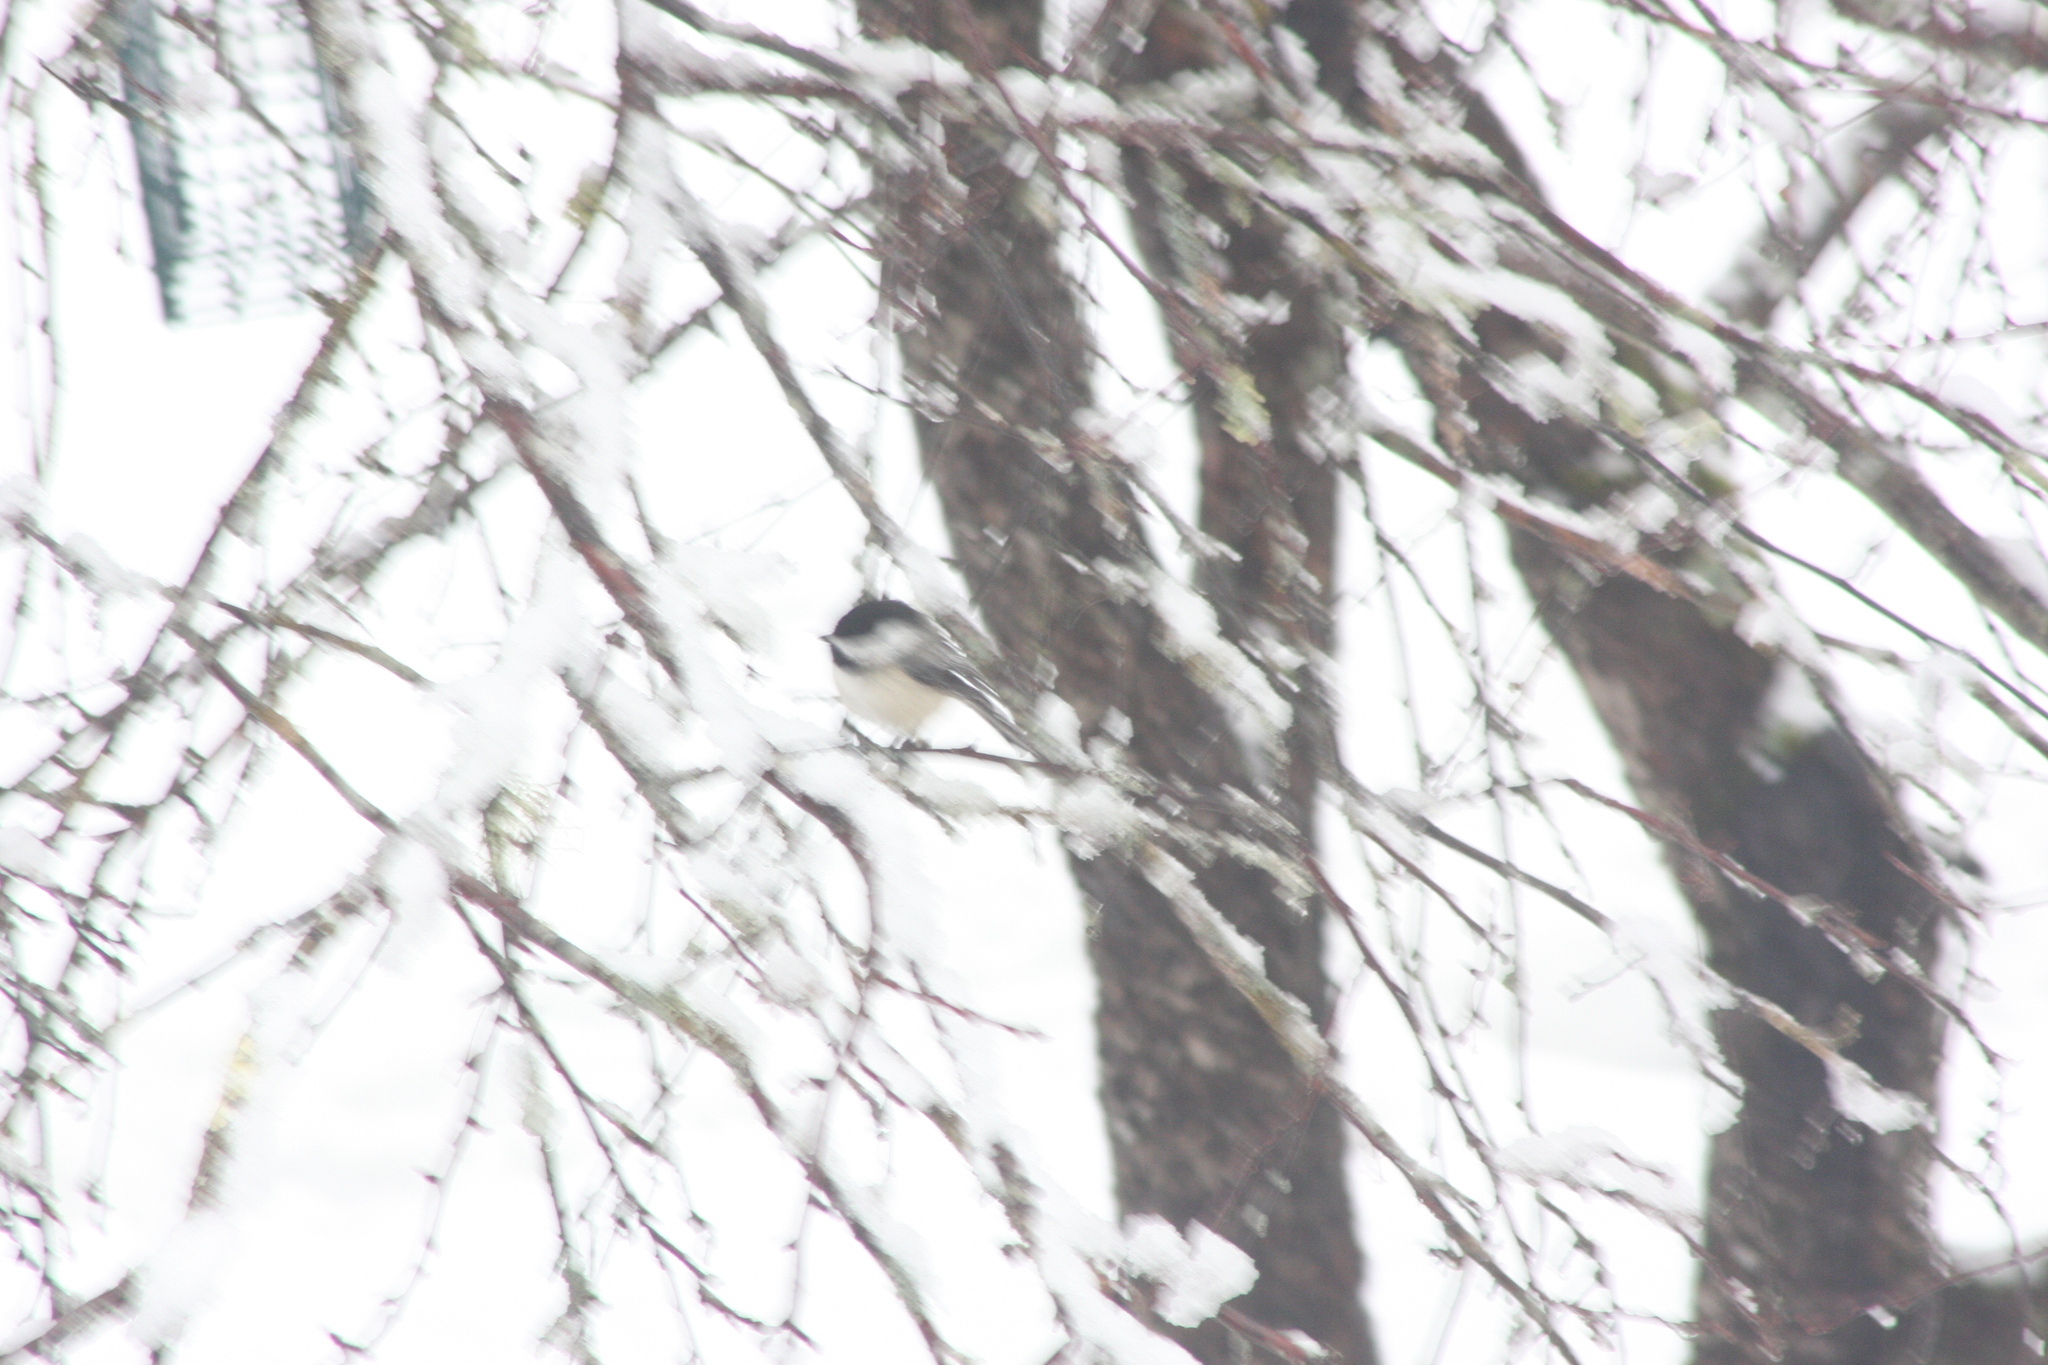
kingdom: Animalia
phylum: Chordata
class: Aves
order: Passeriformes
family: Paridae
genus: Poecile
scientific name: Poecile atricapillus
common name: Black-capped chickadee
